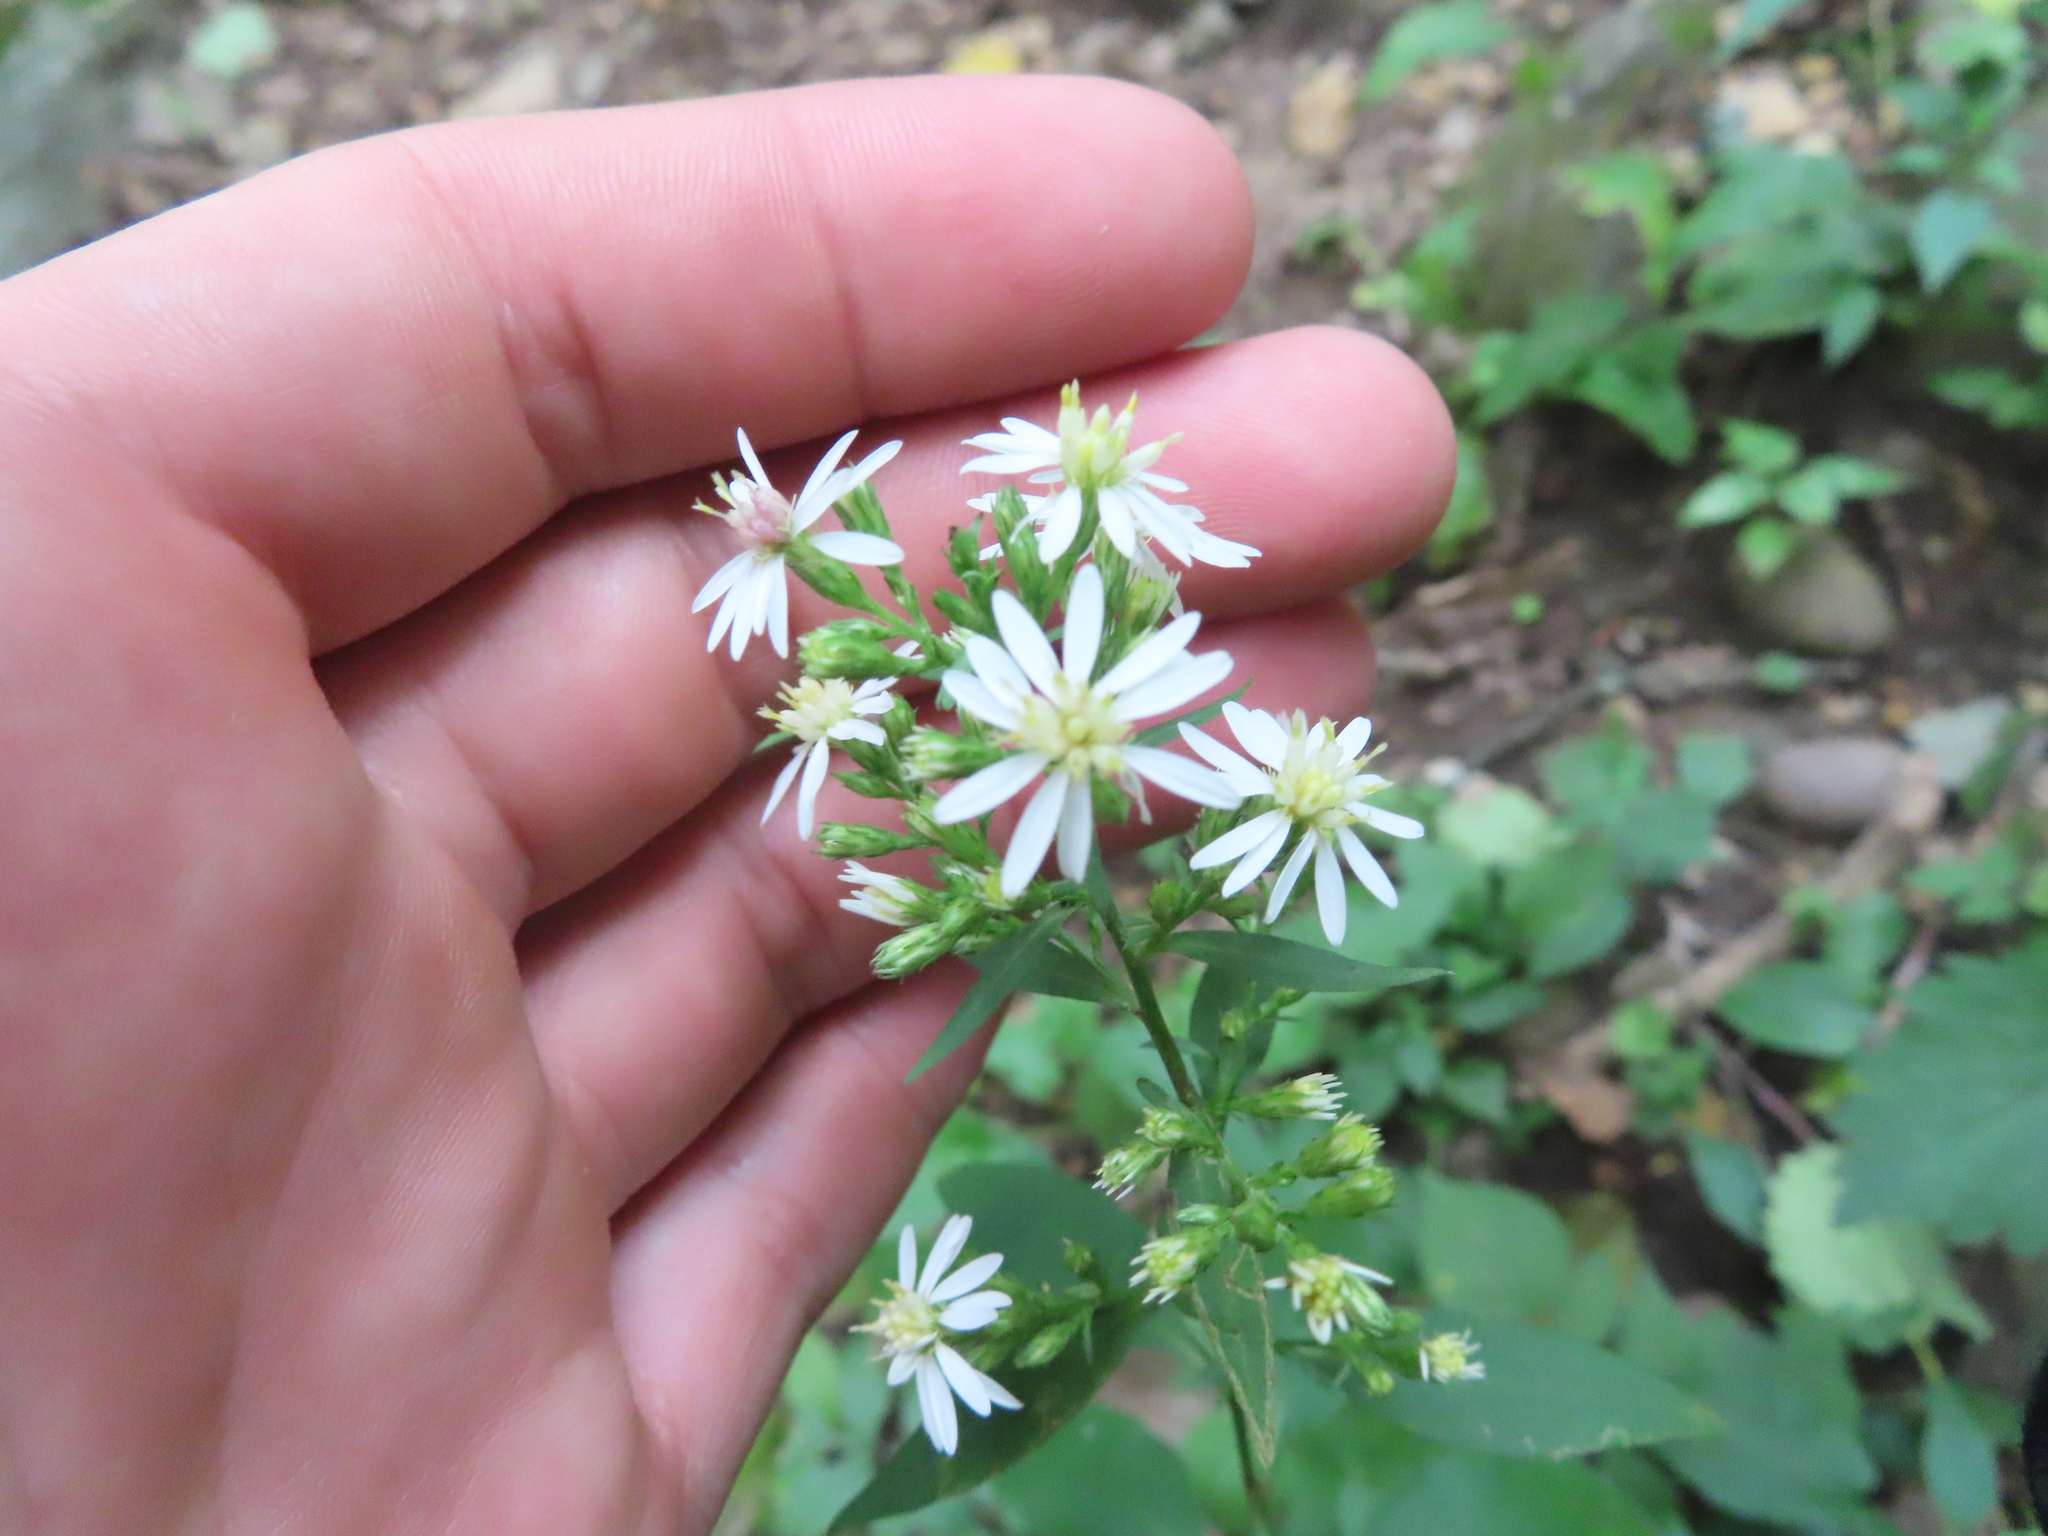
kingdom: Plantae
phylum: Tracheophyta
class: Magnoliopsida
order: Asterales
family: Asteraceae
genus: Symphyotrichum
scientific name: Symphyotrichum urophyllum
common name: Arrow-leaved aster
